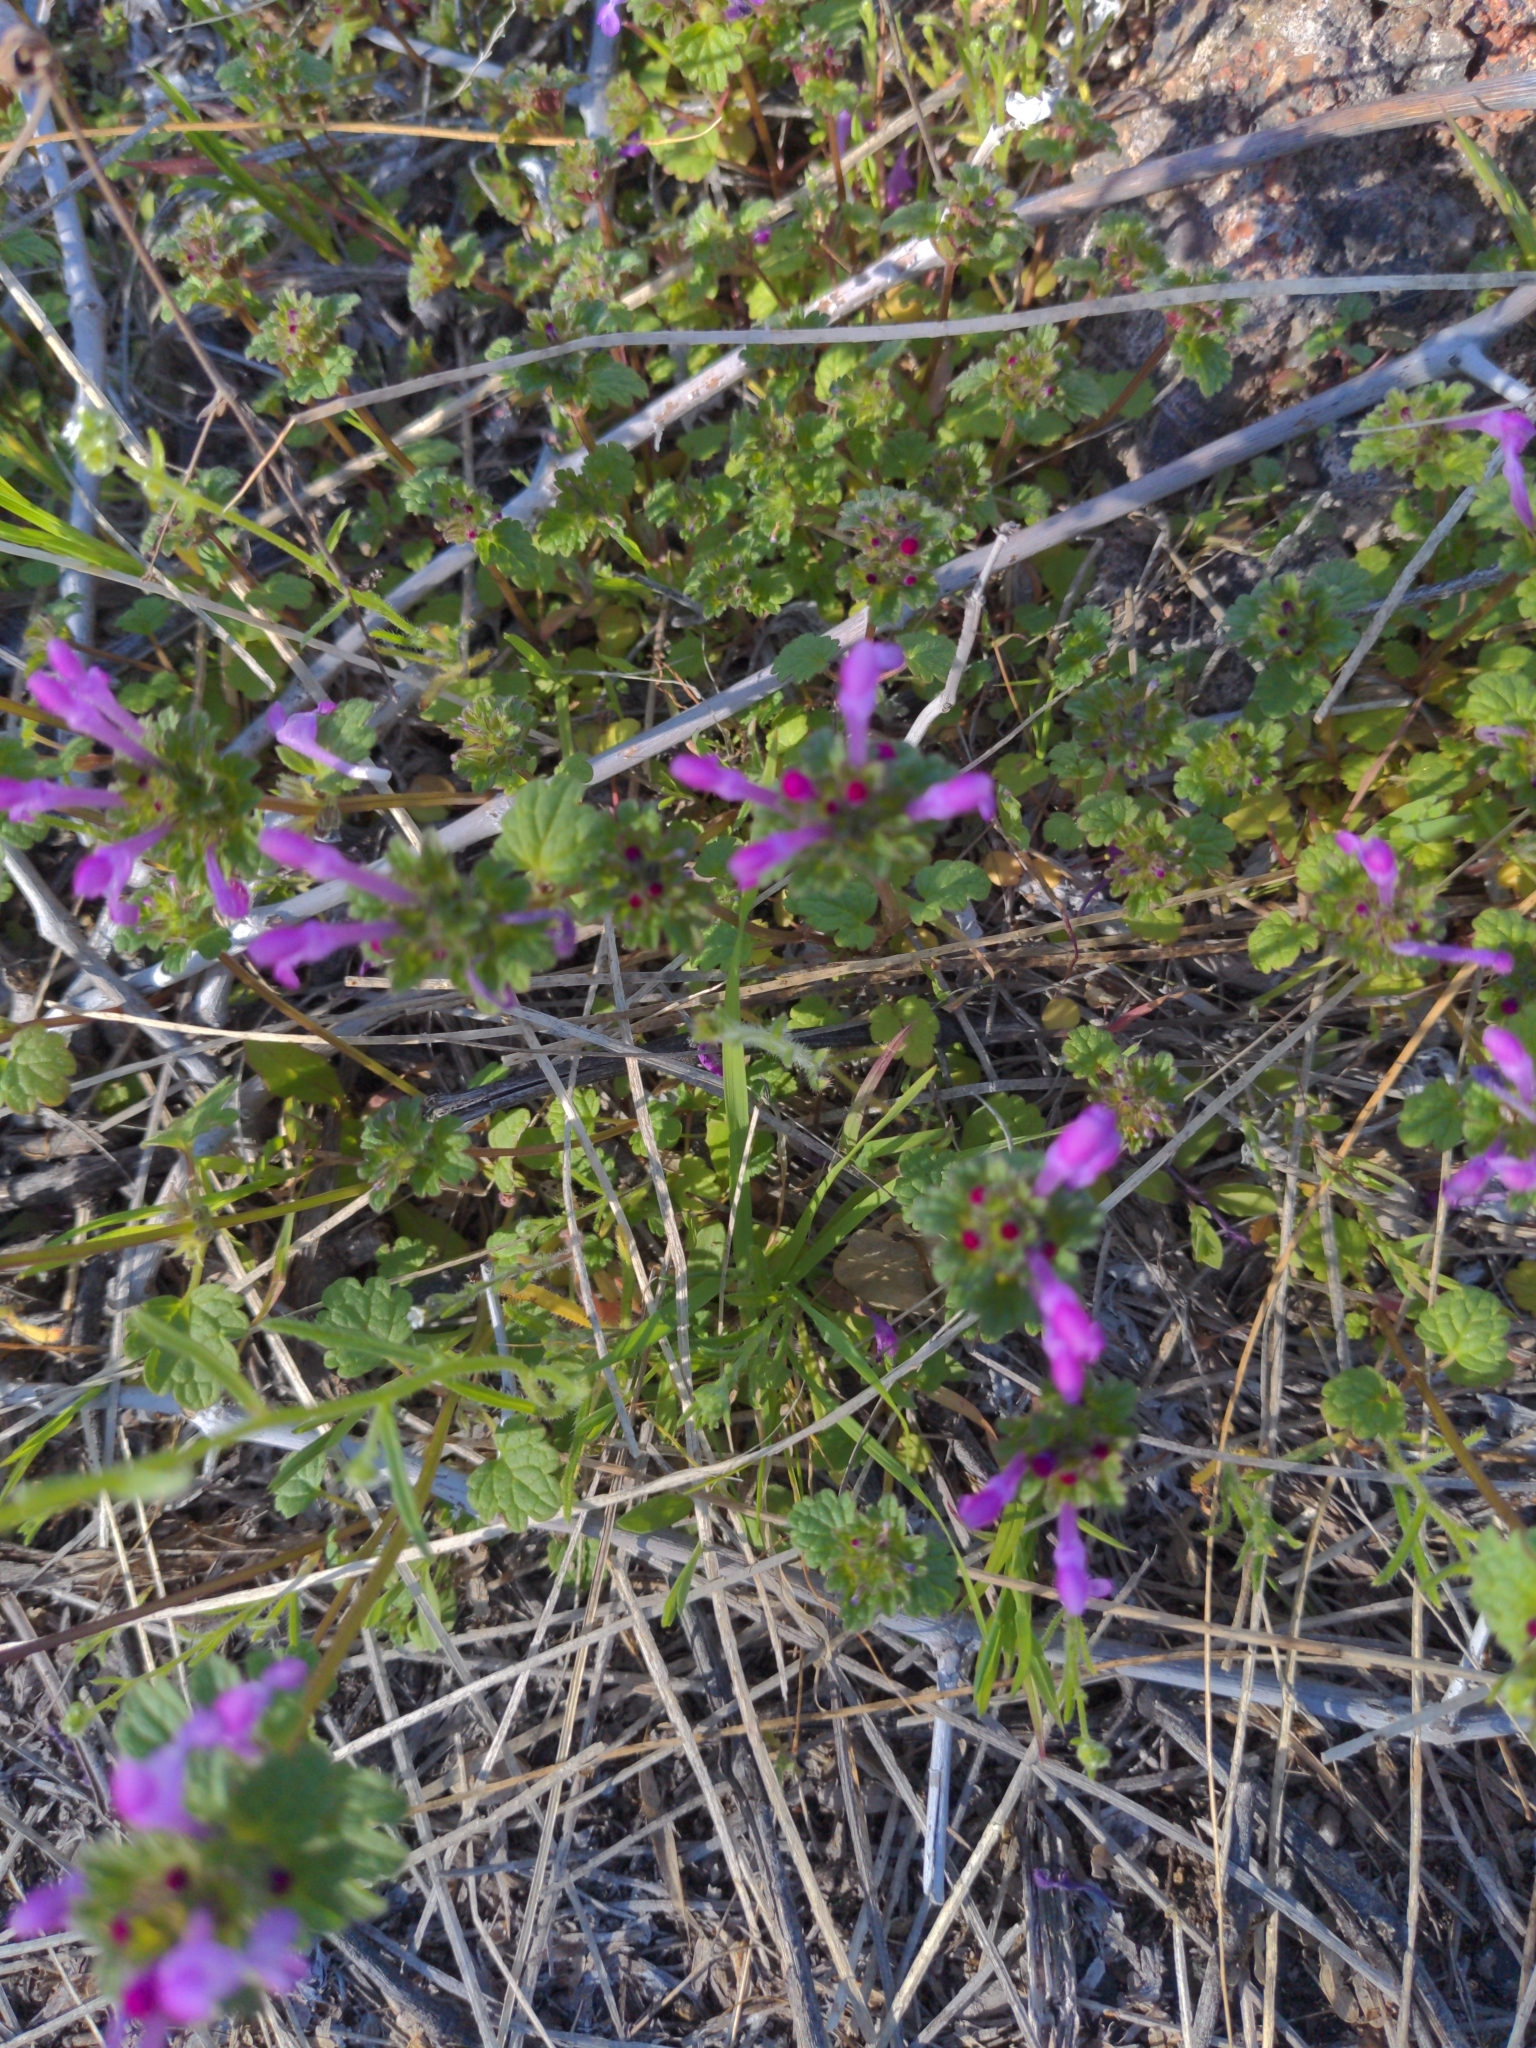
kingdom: Plantae
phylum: Tracheophyta
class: Magnoliopsida
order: Lamiales
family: Lamiaceae
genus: Lamium
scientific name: Lamium amplexicaule
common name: Henbit dead-nettle
